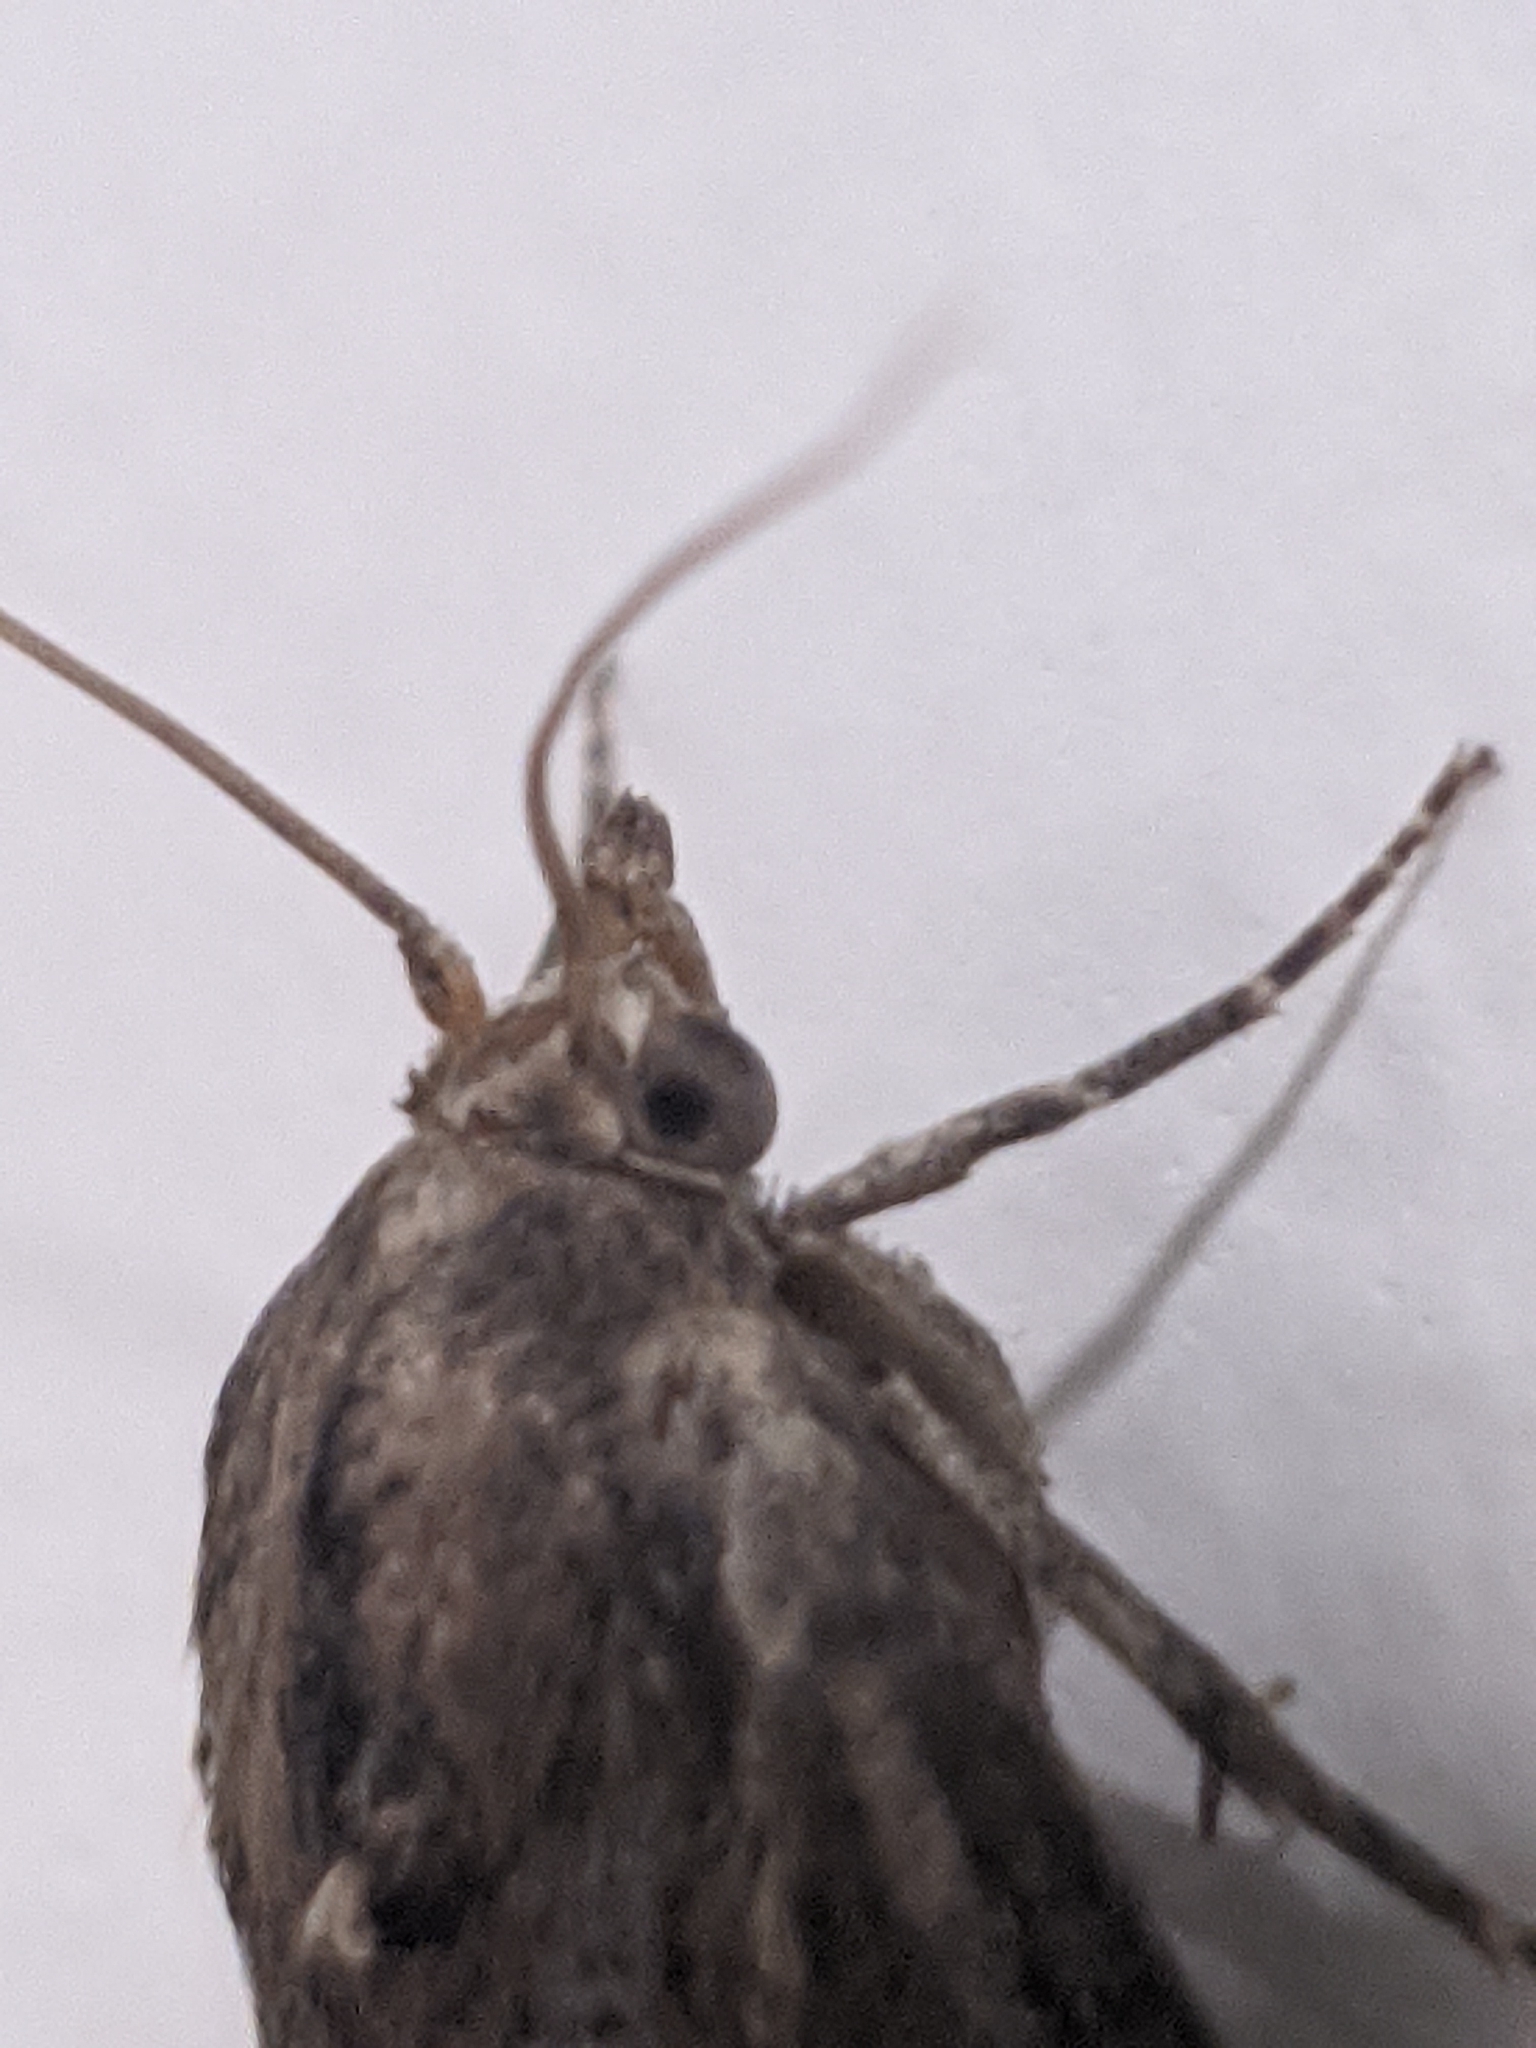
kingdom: Animalia
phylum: Arthropoda
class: Insecta
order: Lepidoptera
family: Pyralidae
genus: Galleria
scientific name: Galleria mellonella
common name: Greater wax moth
